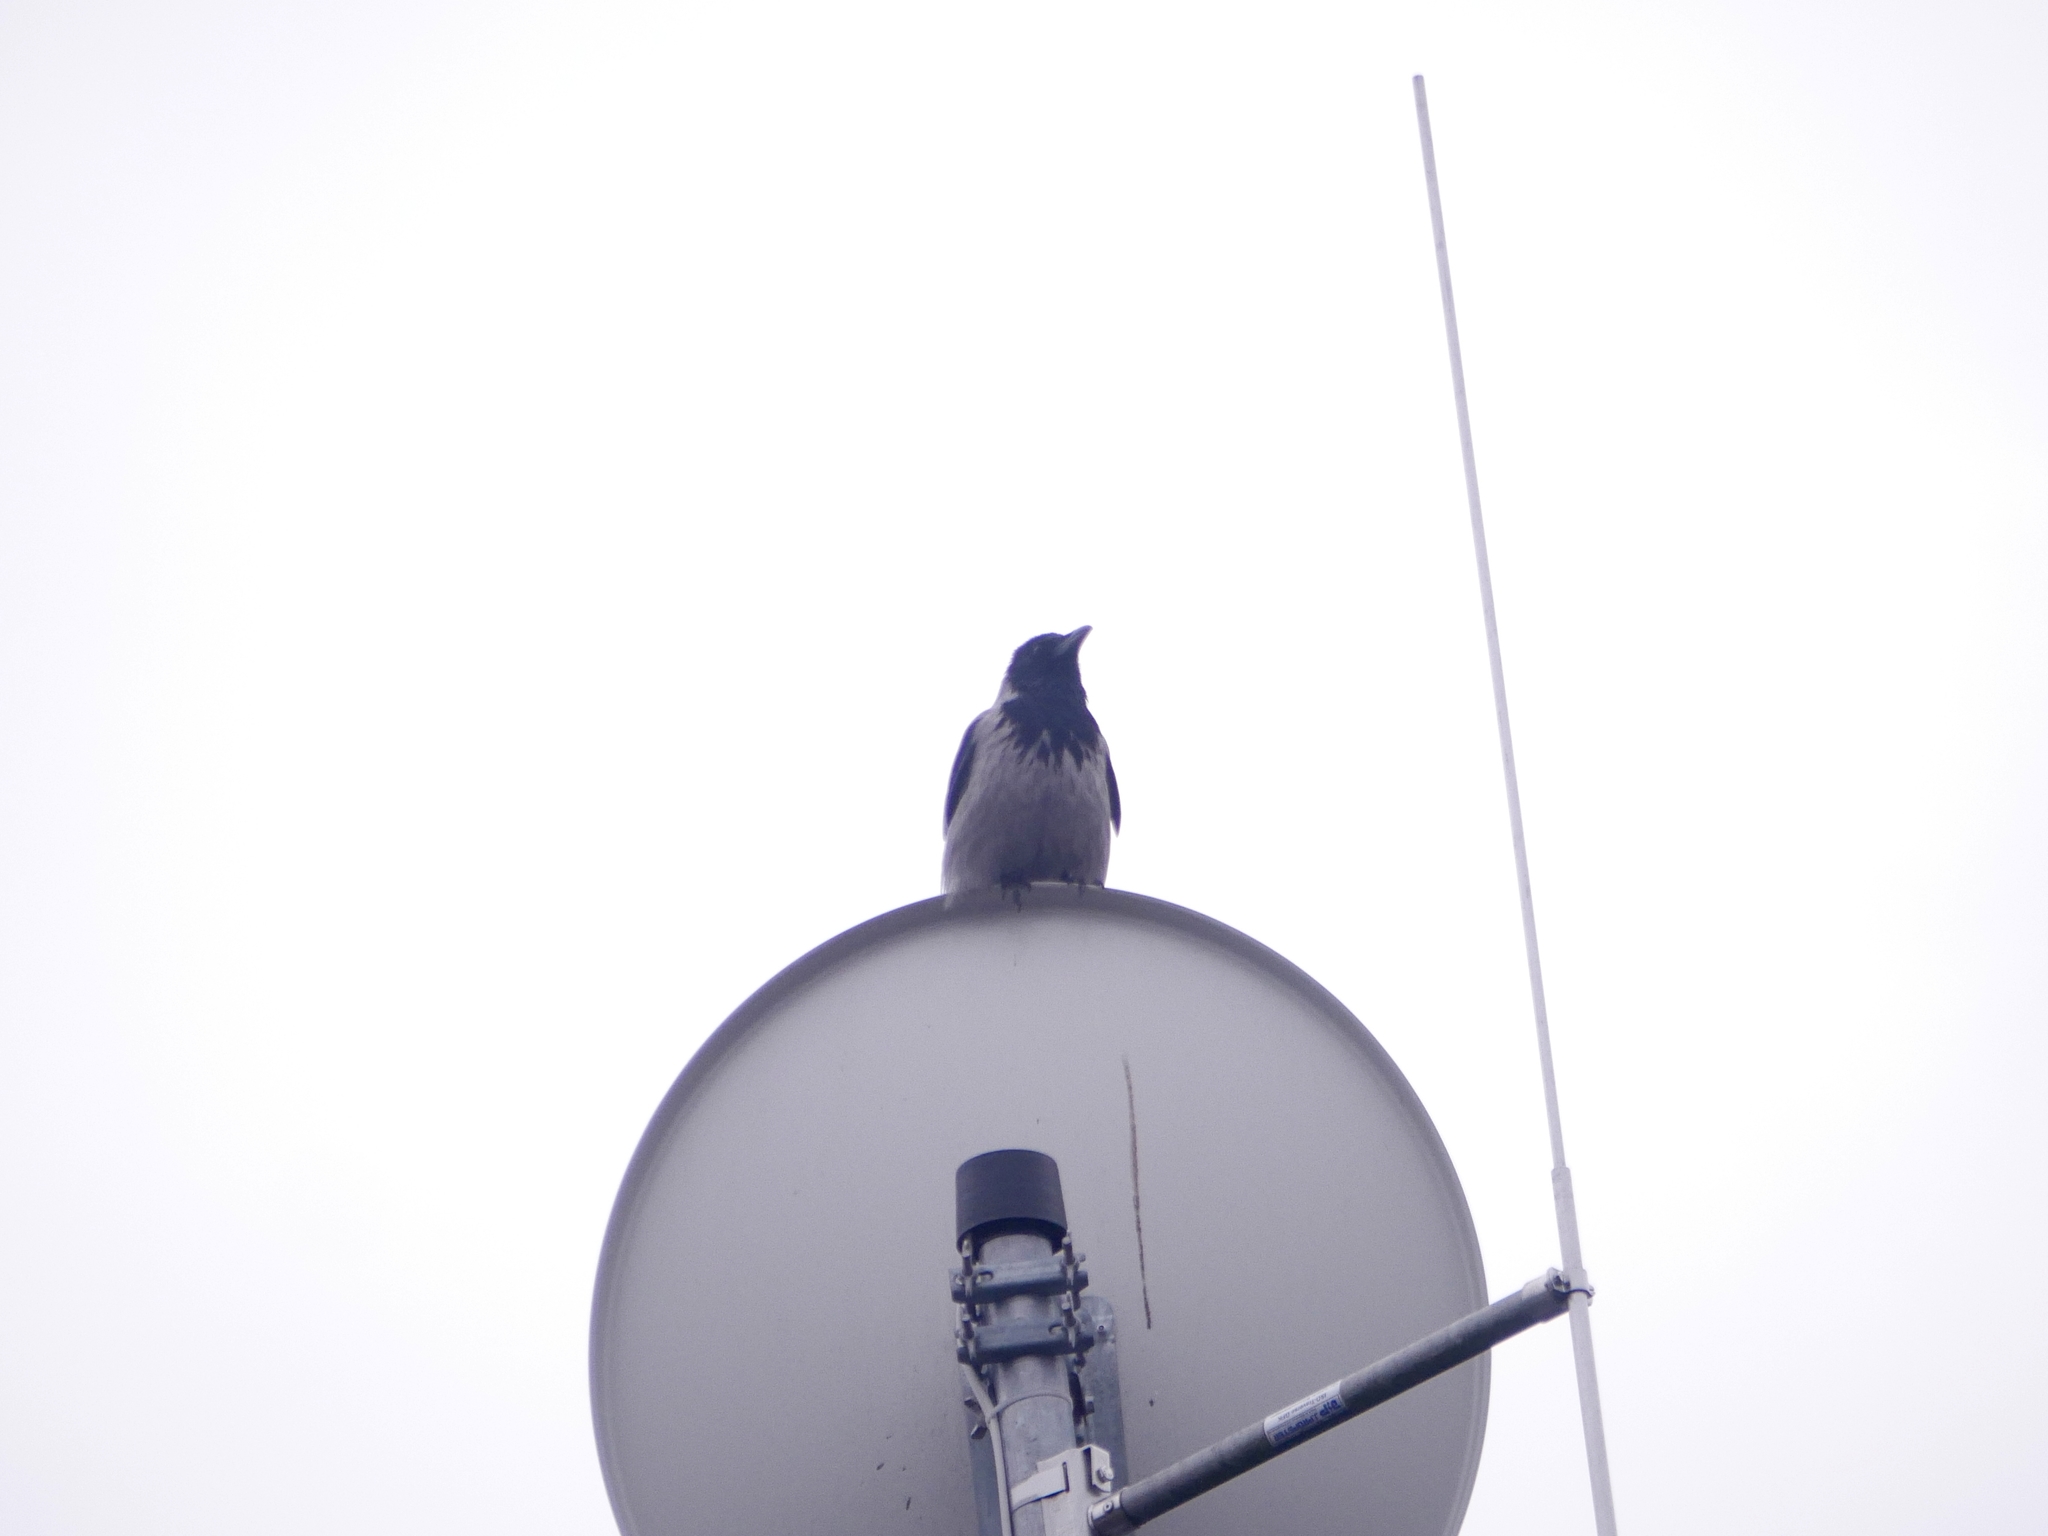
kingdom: Animalia
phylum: Chordata
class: Aves
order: Passeriformes
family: Corvidae
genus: Corvus
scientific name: Corvus cornix
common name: Hooded crow
